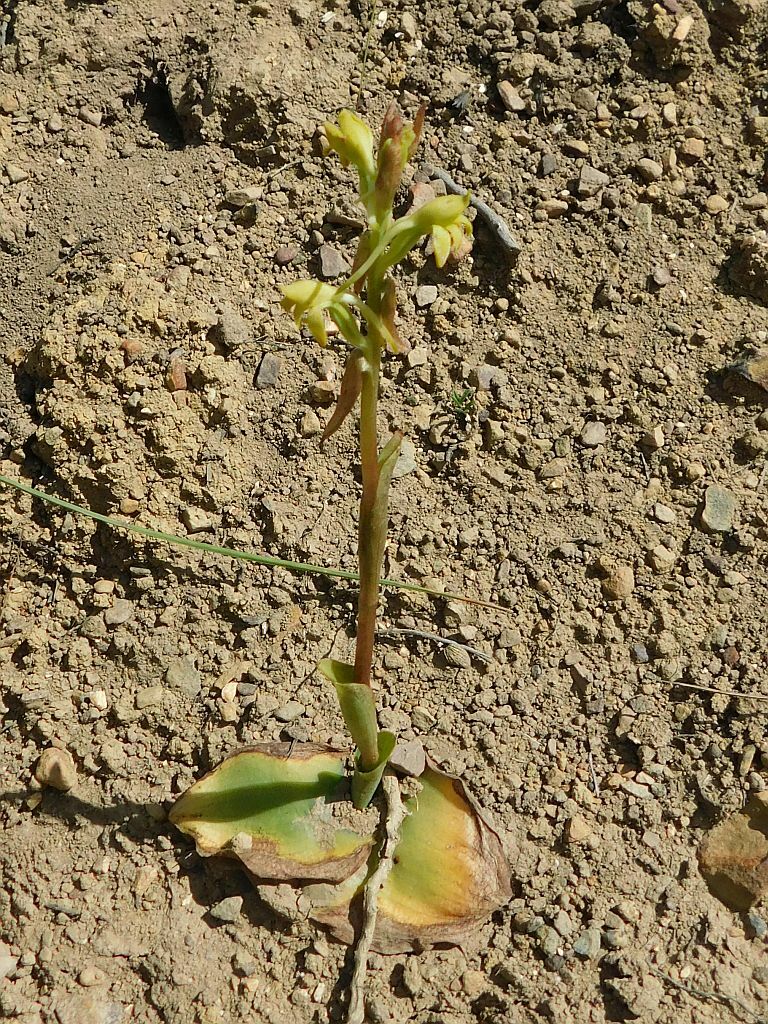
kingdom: Plantae
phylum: Tracheophyta
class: Liliopsida
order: Asparagales
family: Orchidaceae
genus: Satyrium
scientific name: Satyrium bicorne
